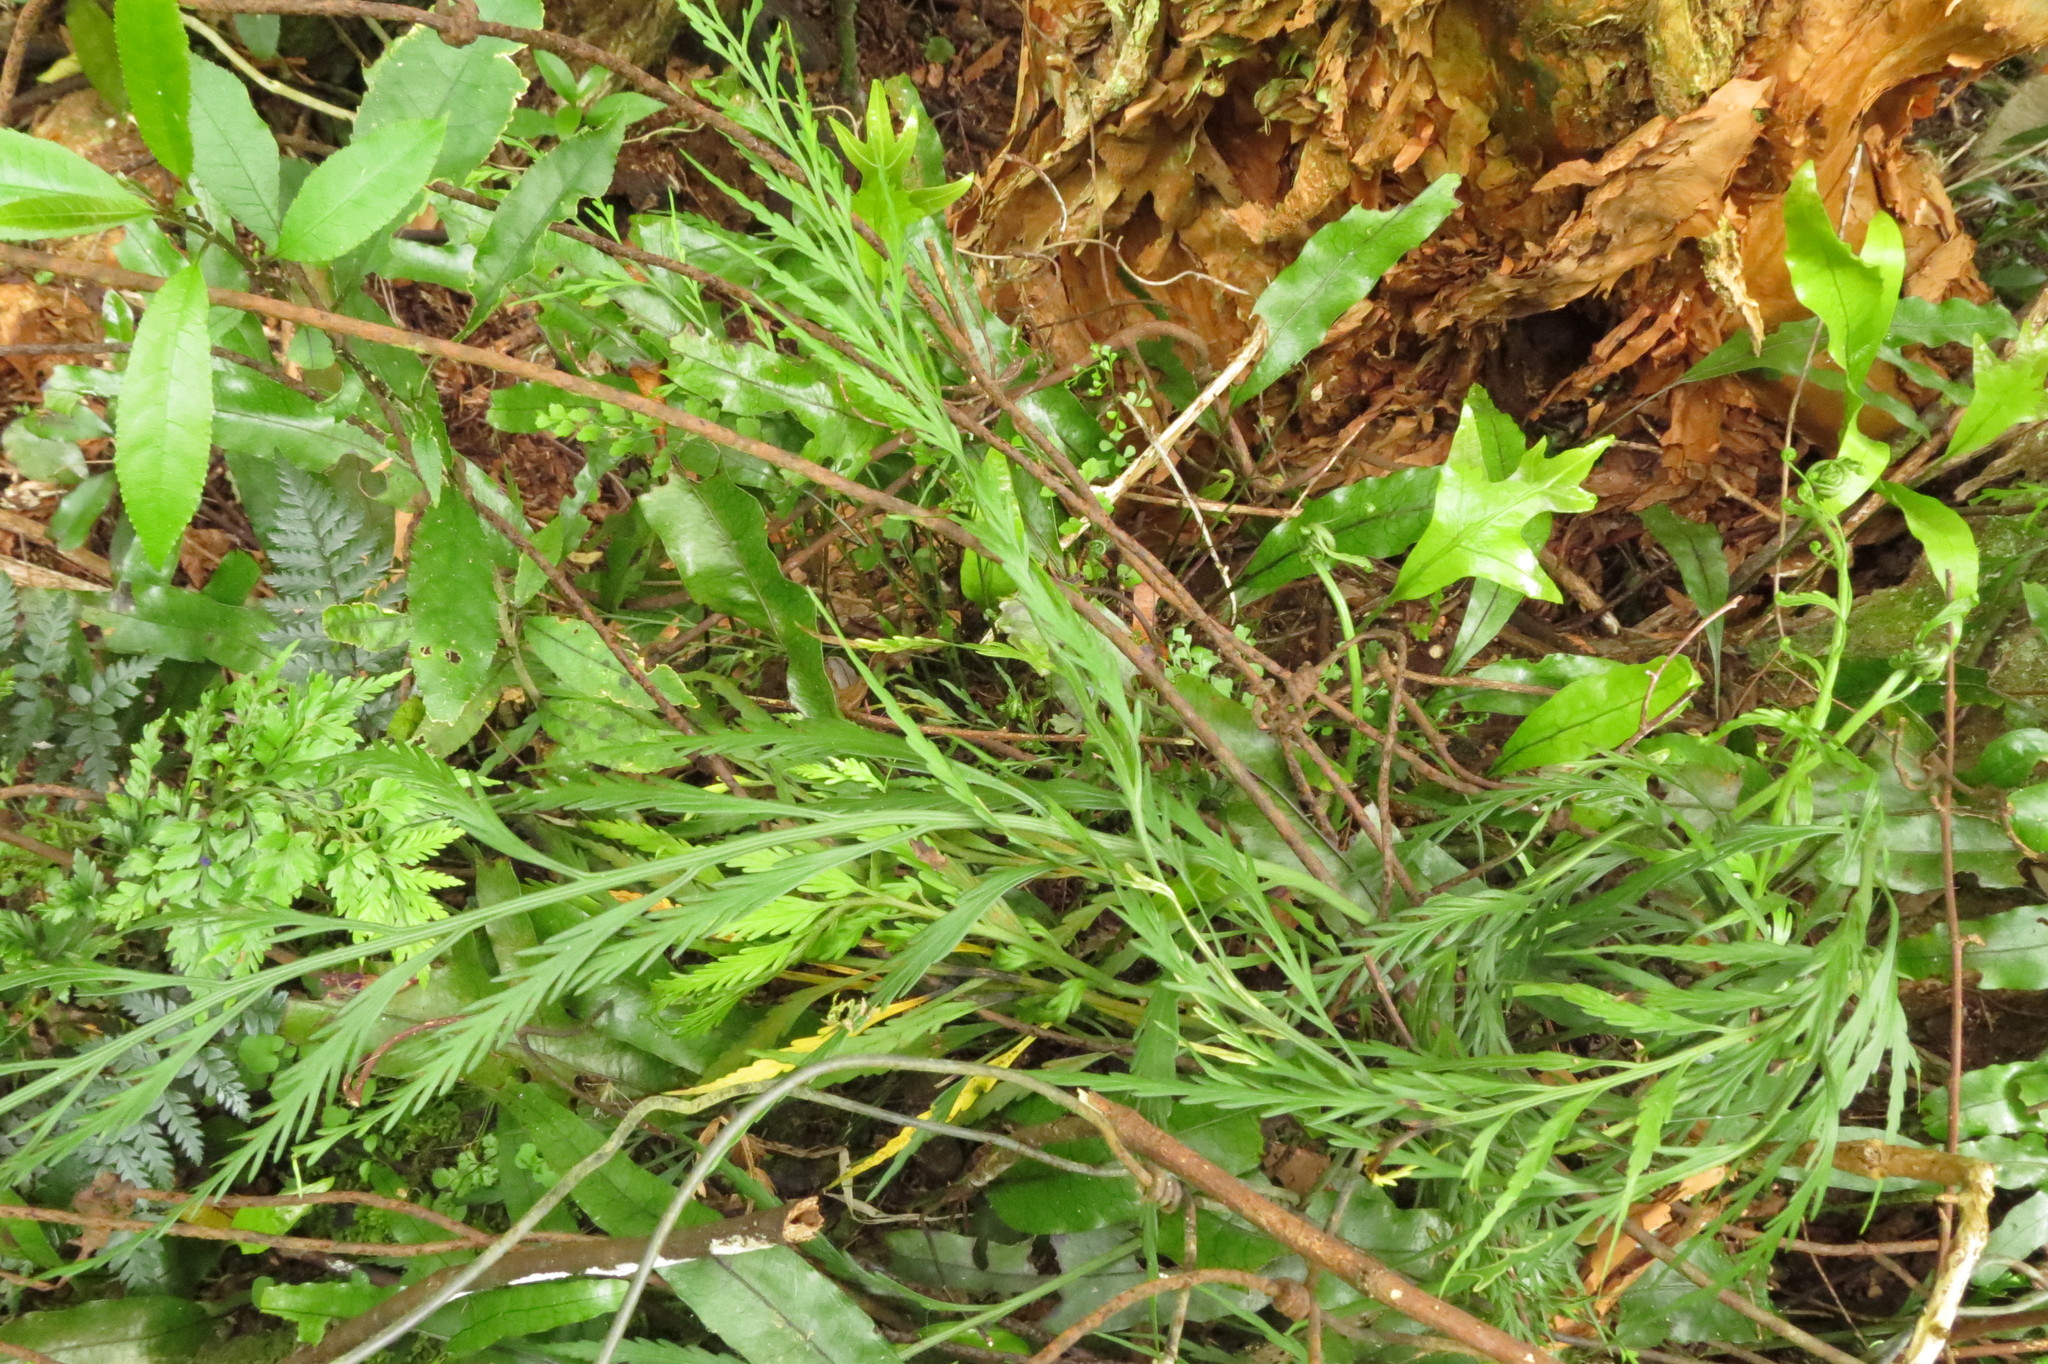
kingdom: Plantae
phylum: Tracheophyta
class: Polypodiopsida
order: Polypodiales
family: Aspleniaceae
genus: Asplenium
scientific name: Asplenium flaccidum
